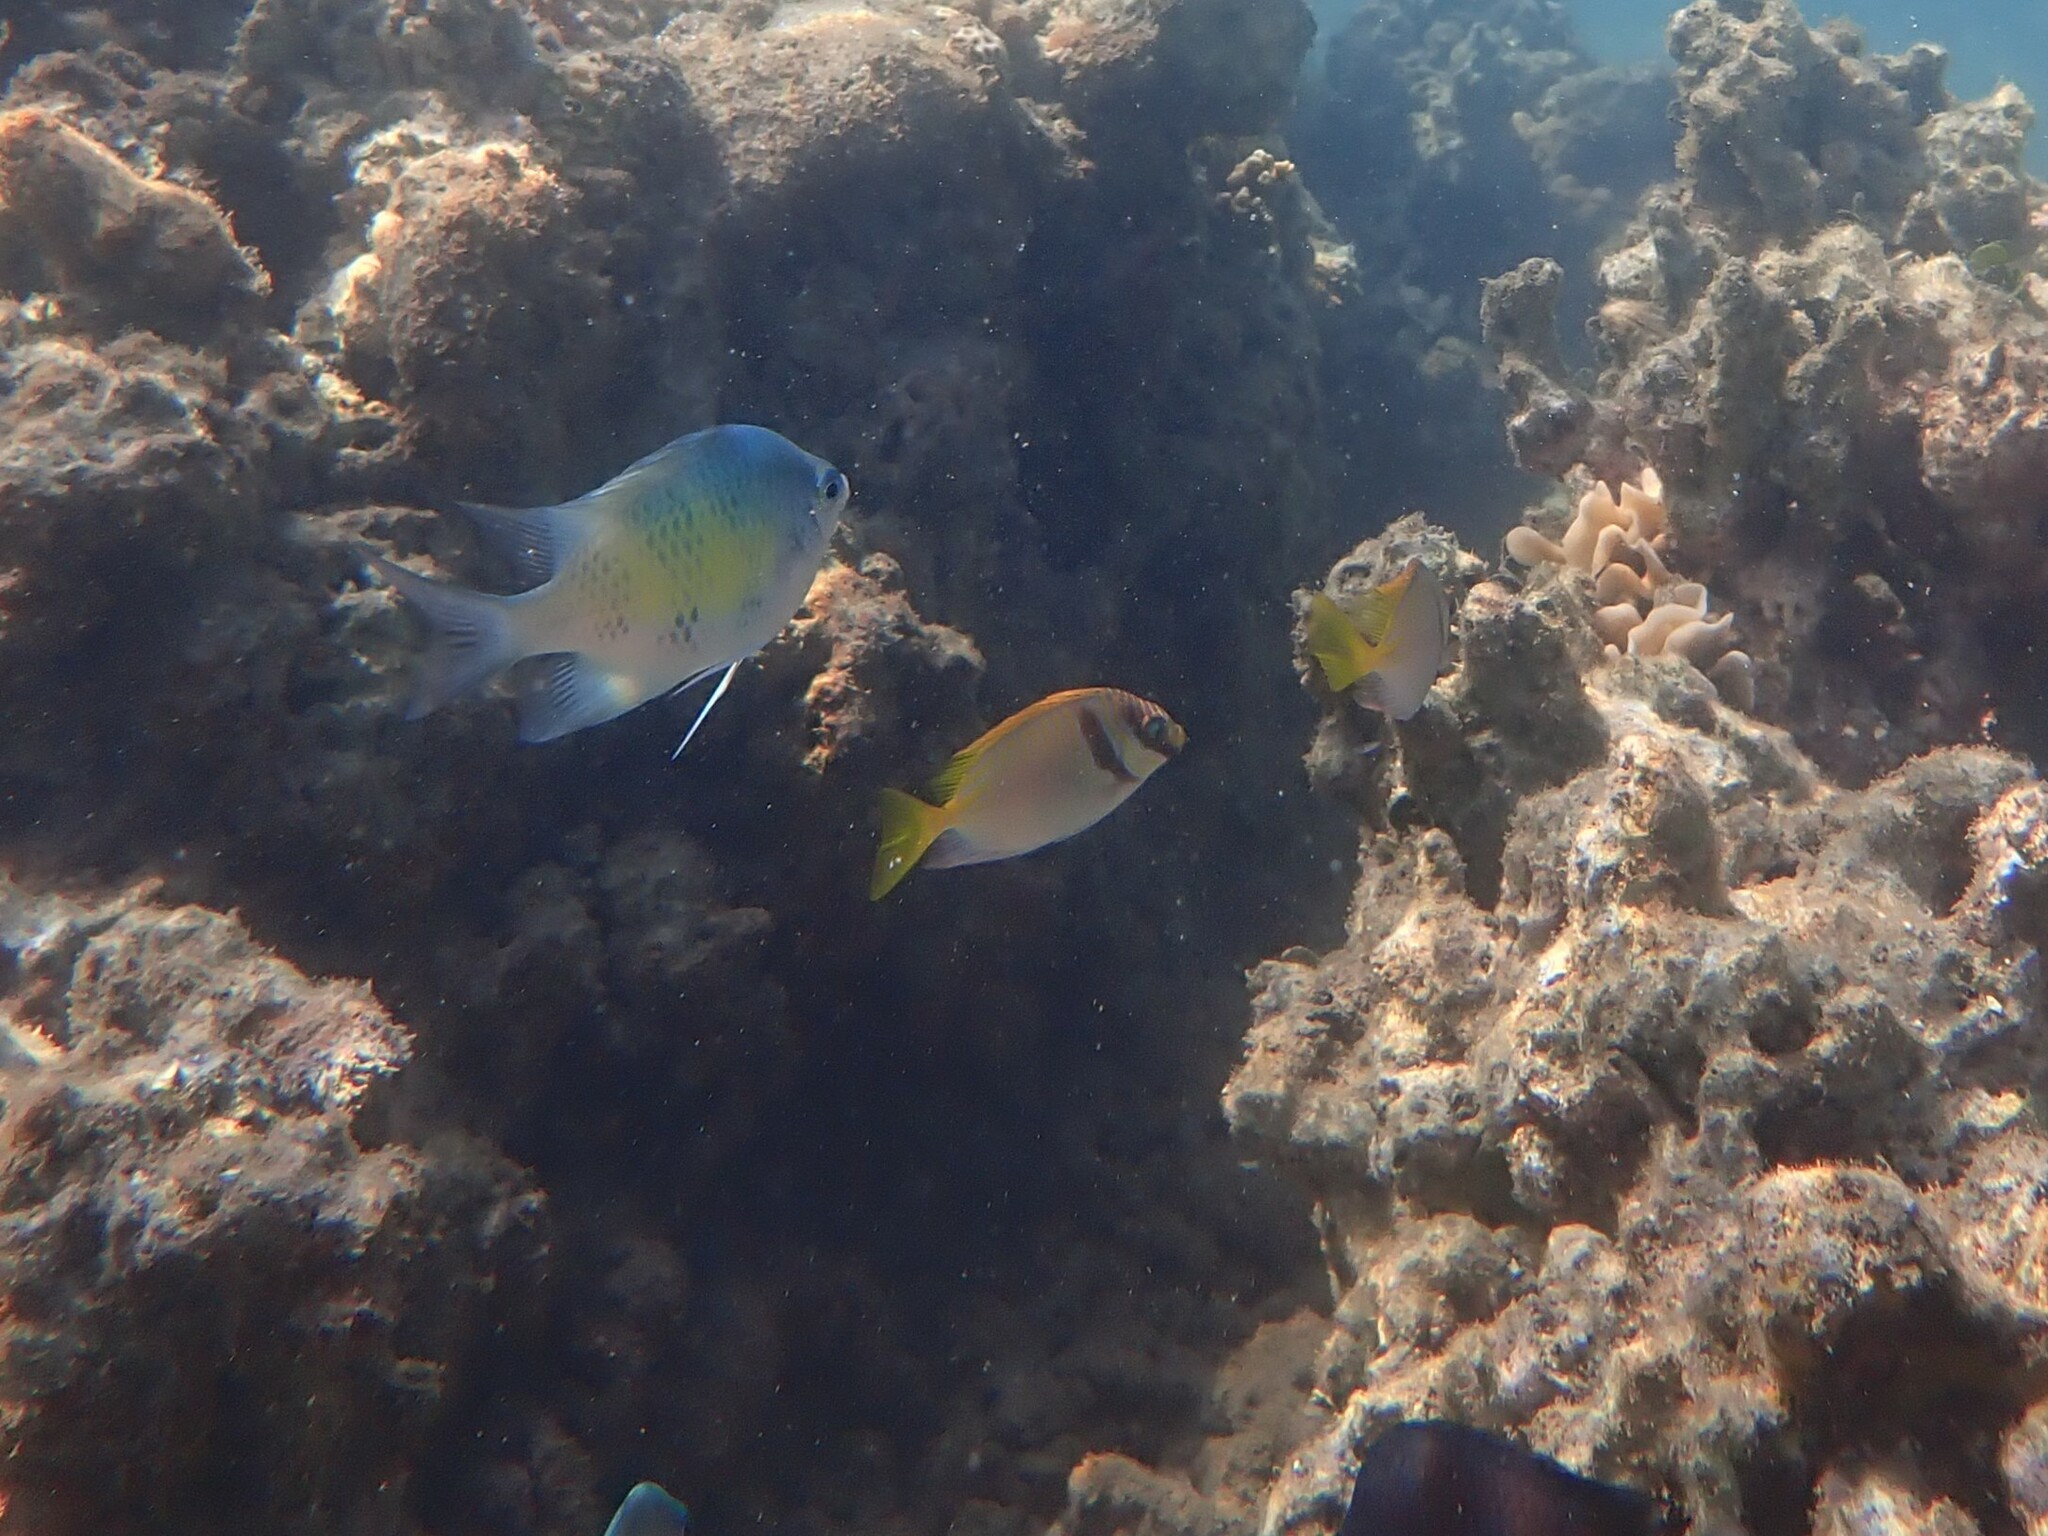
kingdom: Animalia
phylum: Chordata
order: Perciformes
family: Siganidae
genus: Siganus
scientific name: Siganus doliatus
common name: Barred spinefoot
